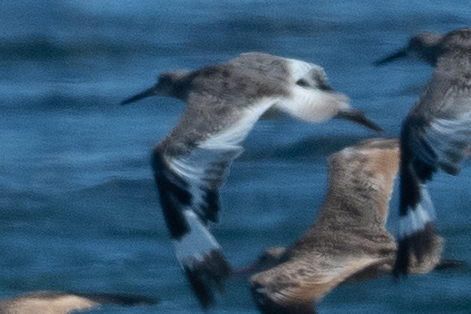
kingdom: Animalia
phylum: Chordata
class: Aves
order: Charadriiformes
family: Scolopacidae
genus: Tringa
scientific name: Tringa semipalmata
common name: Willet
